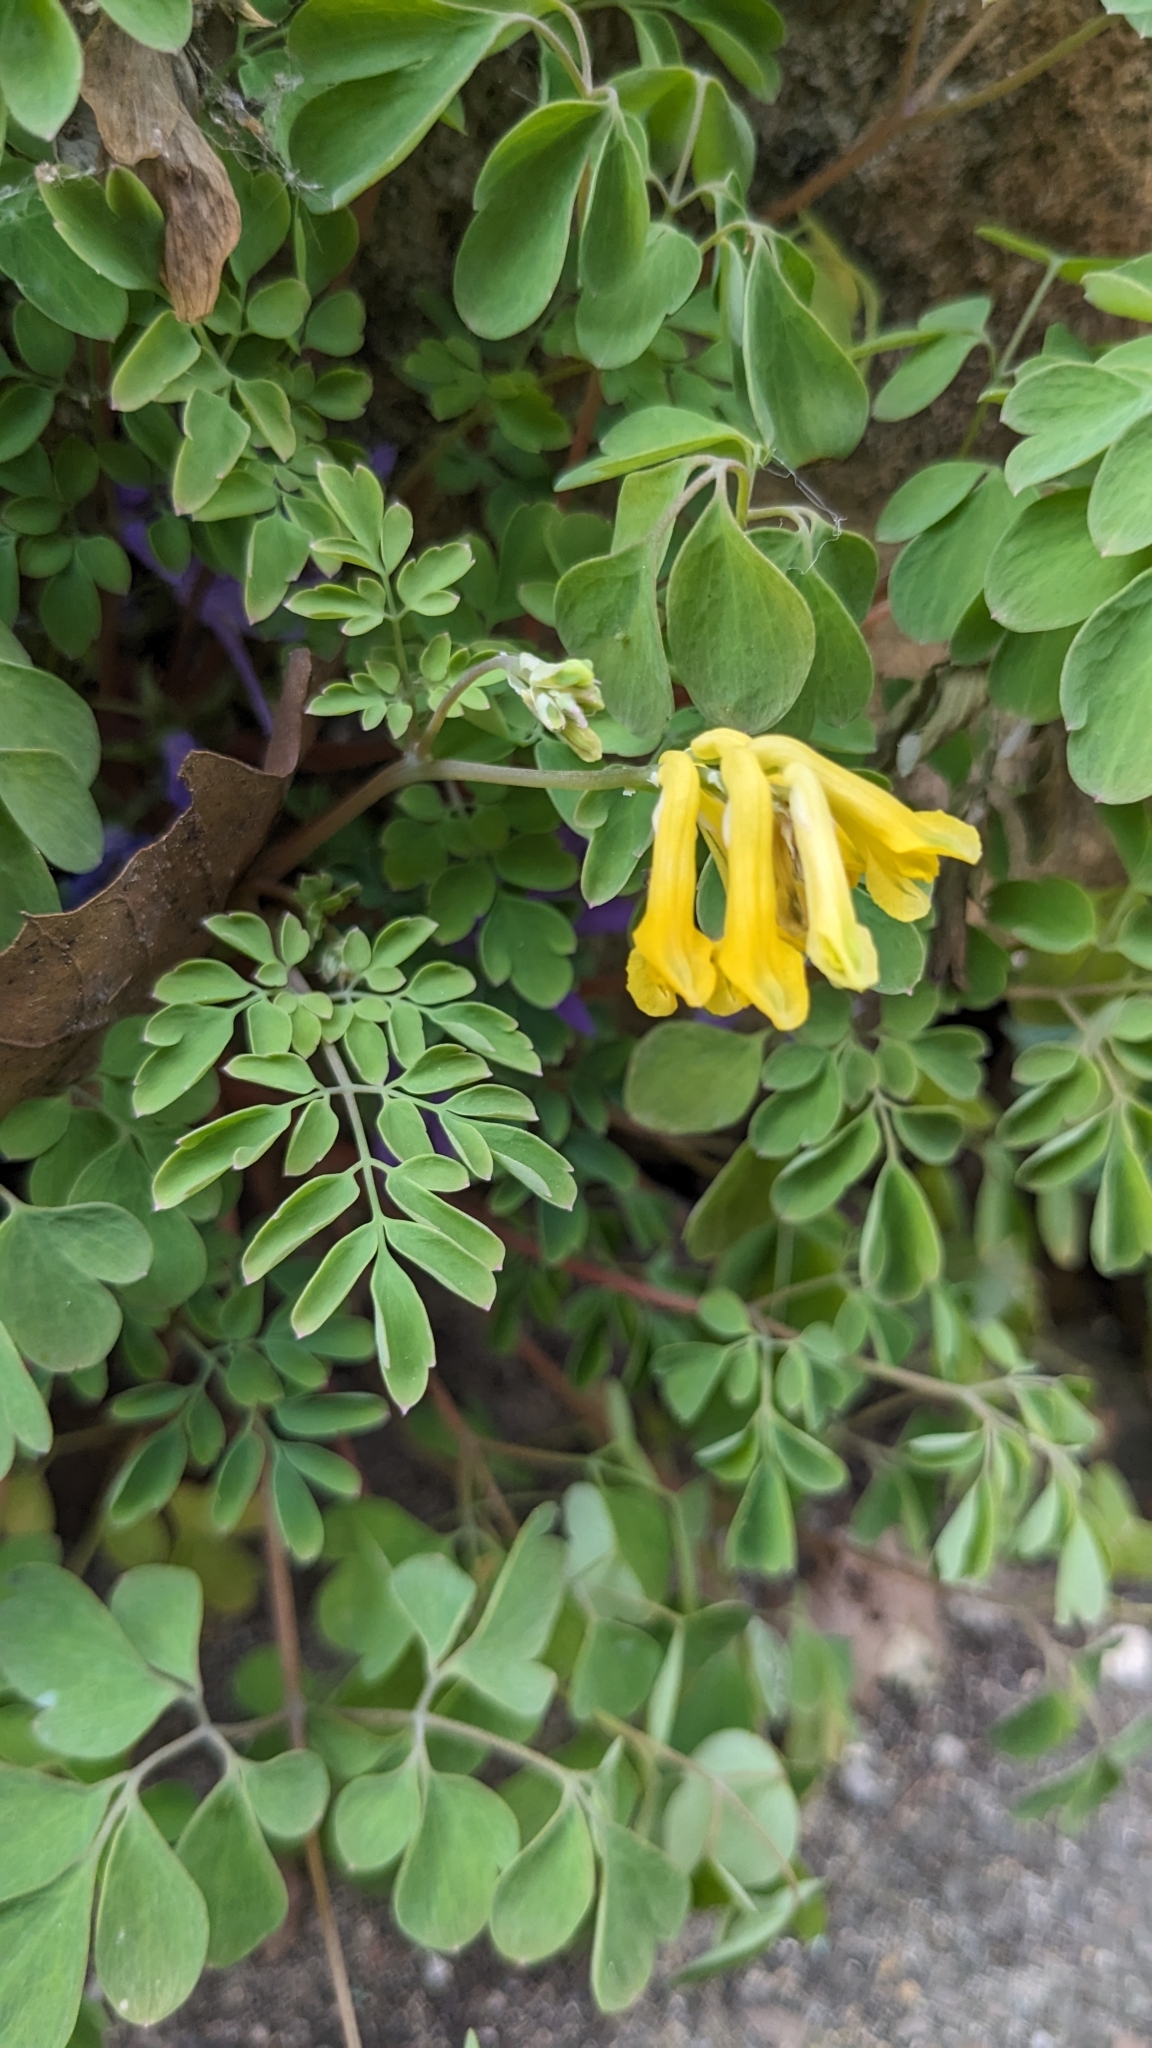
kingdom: Plantae
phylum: Tracheophyta
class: Magnoliopsida
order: Ranunculales
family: Papaveraceae
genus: Pseudofumaria
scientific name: Pseudofumaria lutea
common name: Yellow corydalis
